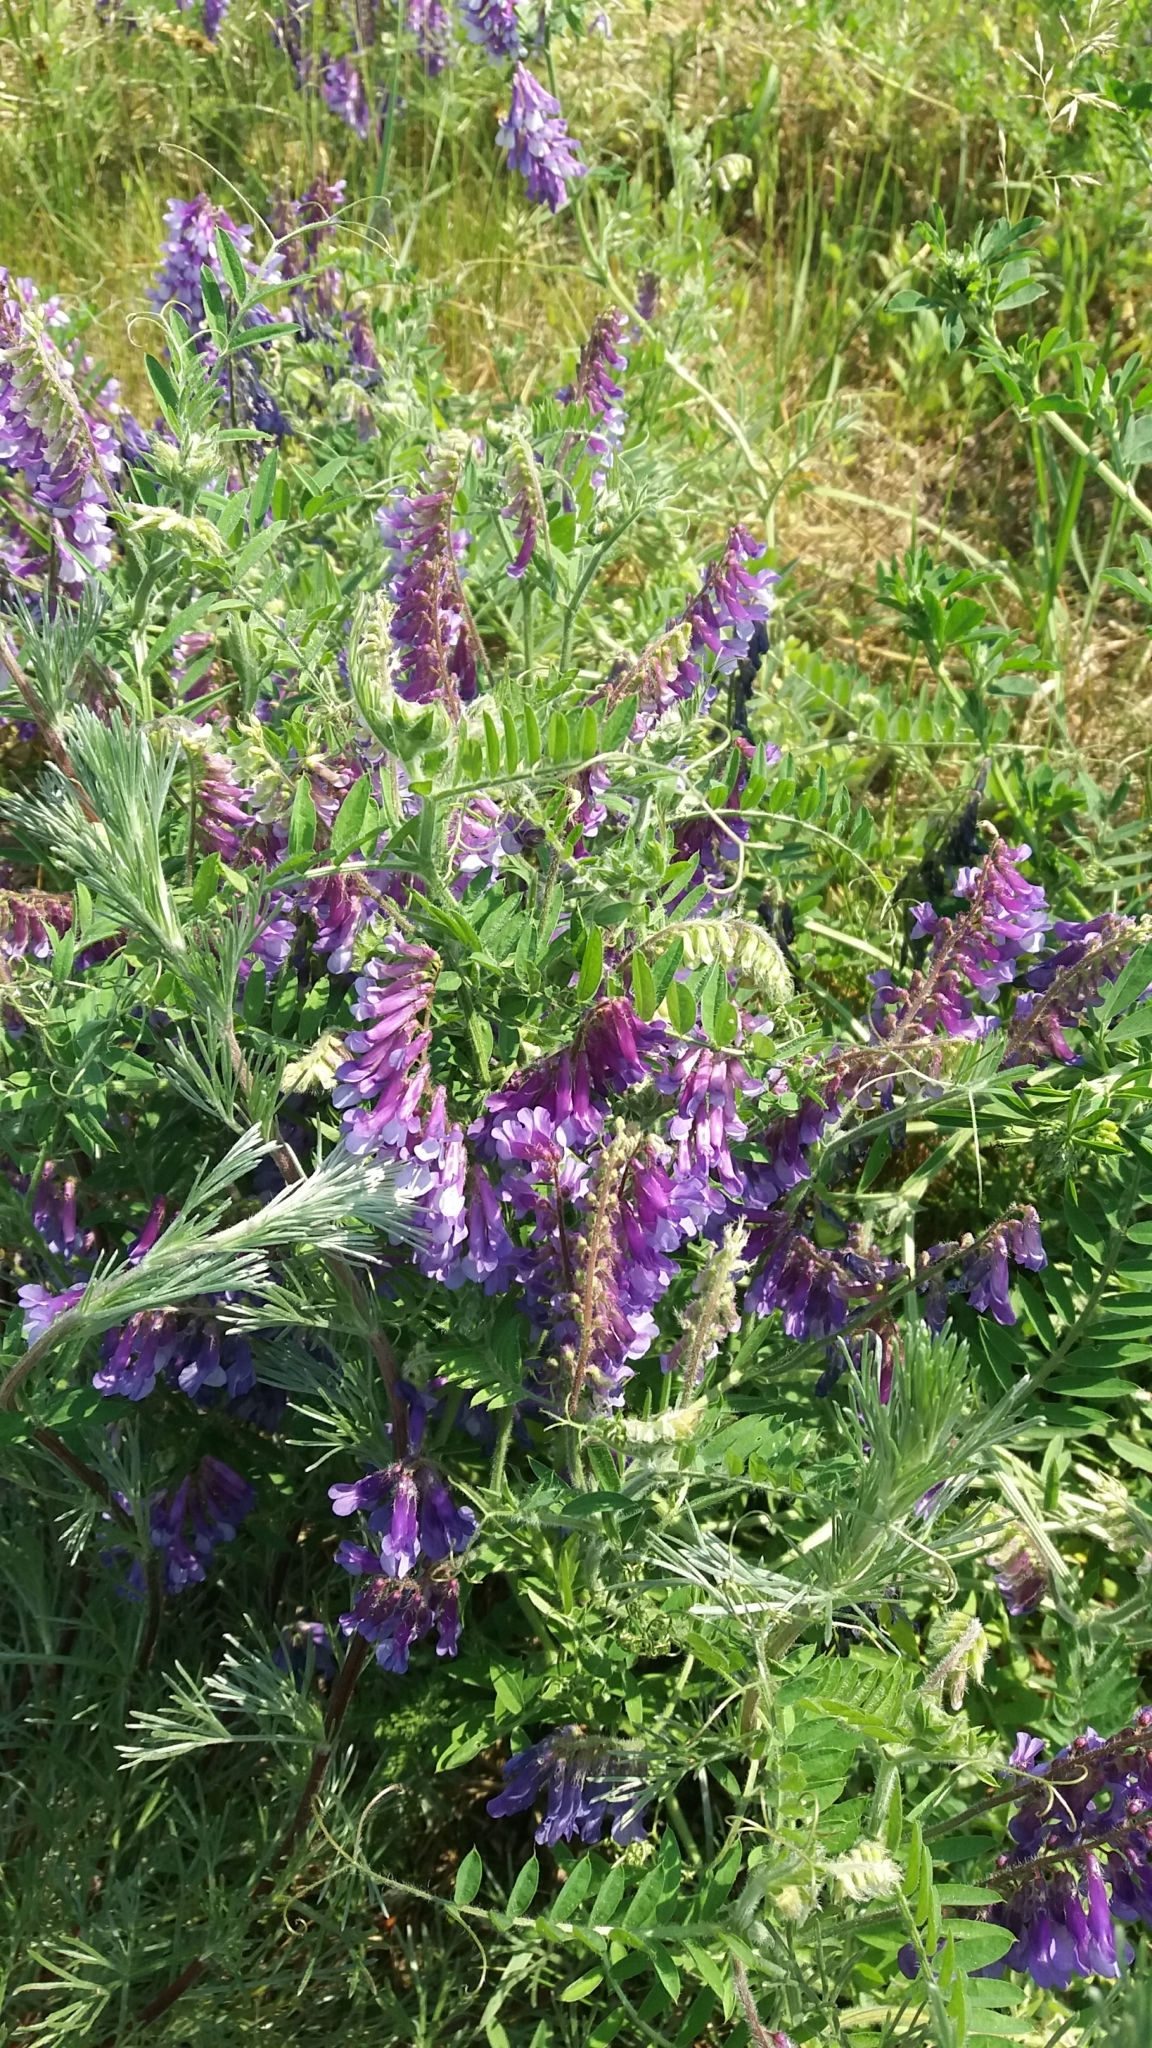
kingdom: Plantae
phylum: Tracheophyta
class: Magnoliopsida
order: Fabales
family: Fabaceae
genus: Vicia
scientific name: Vicia villosa
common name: Fodder vetch
